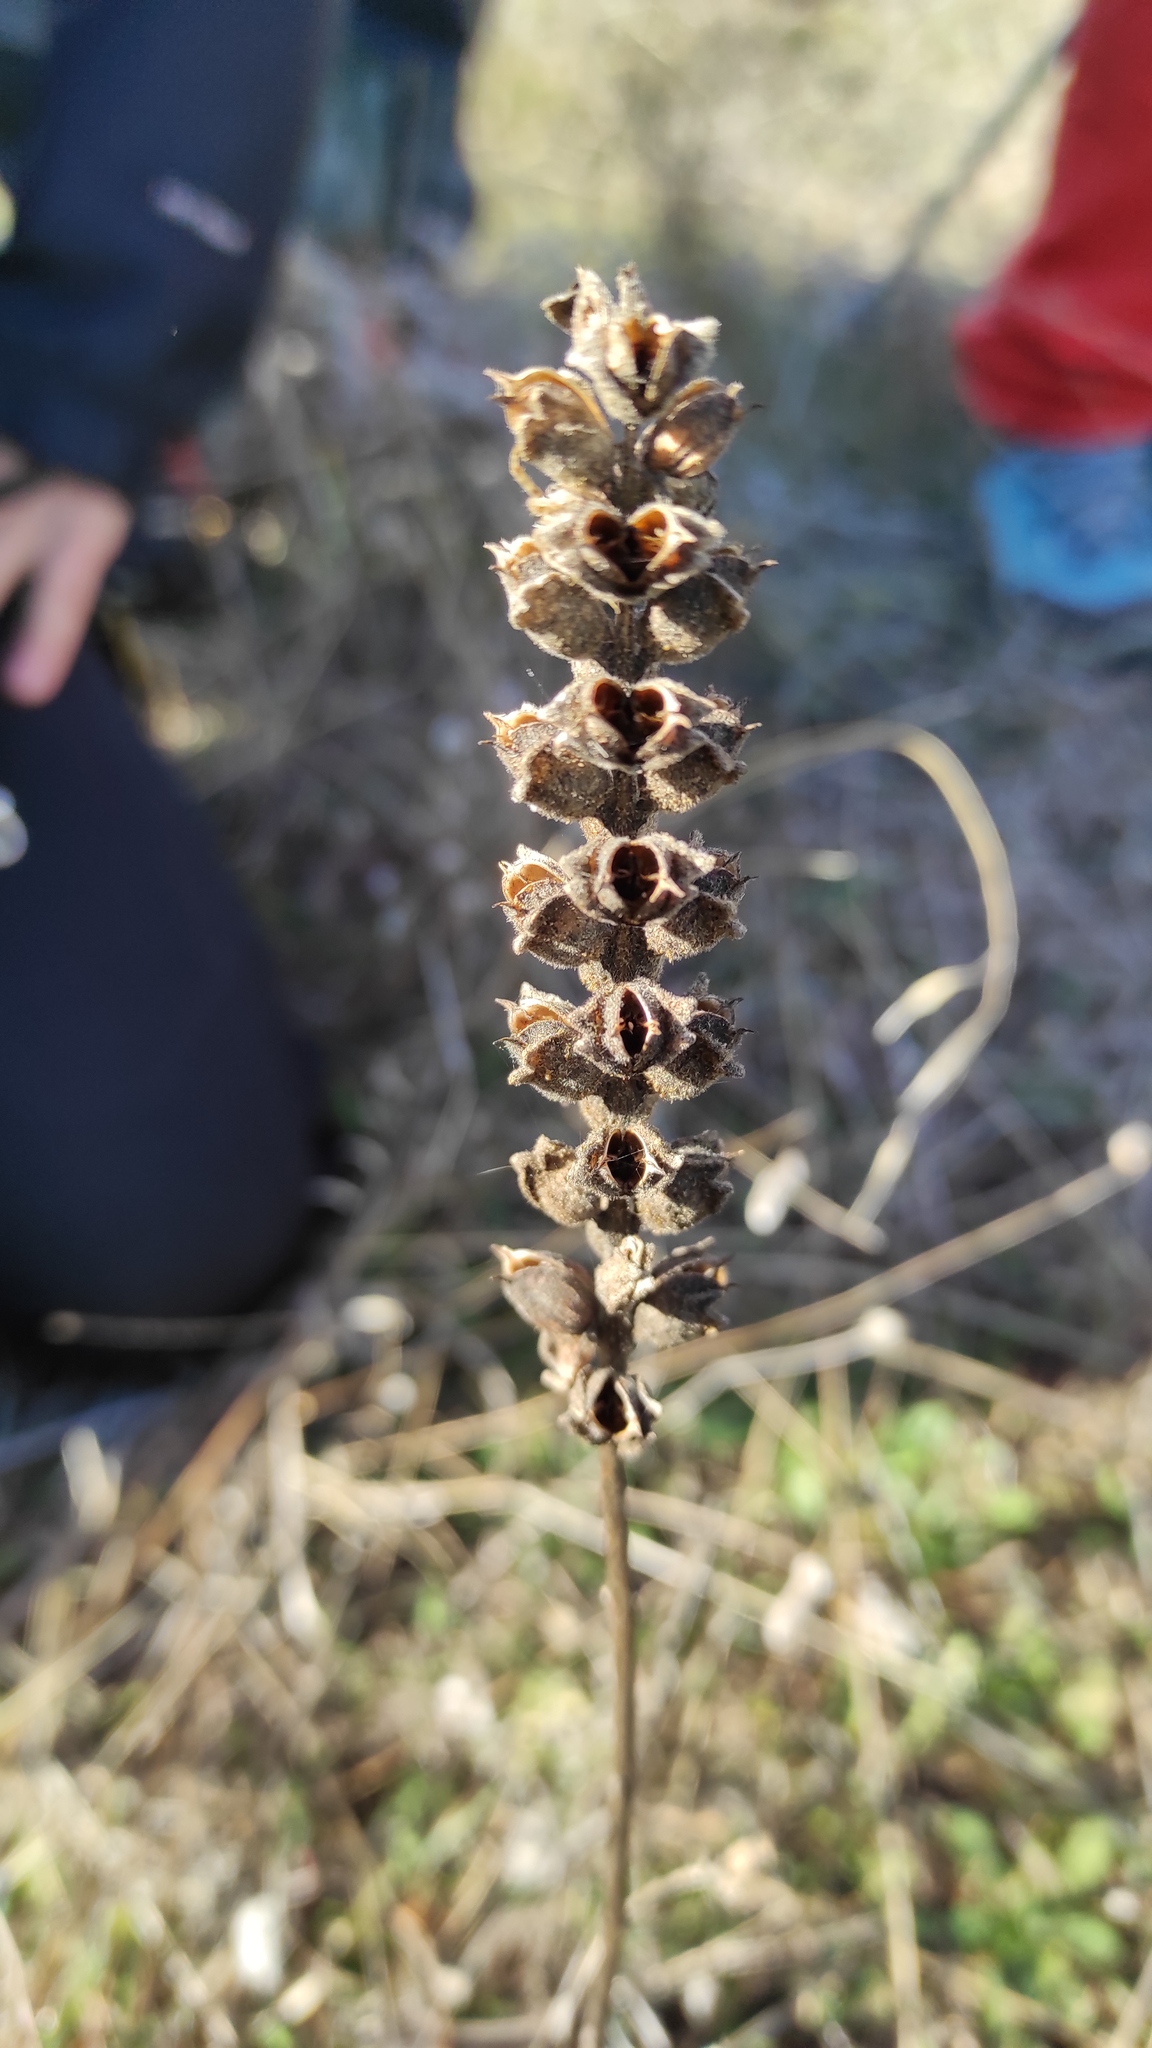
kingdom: Plantae
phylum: Tracheophyta
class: Magnoliopsida
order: Lamiales
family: Orobanchaceae
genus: Bellardia
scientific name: Bellardia trixago
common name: Mediterranean lineseed
